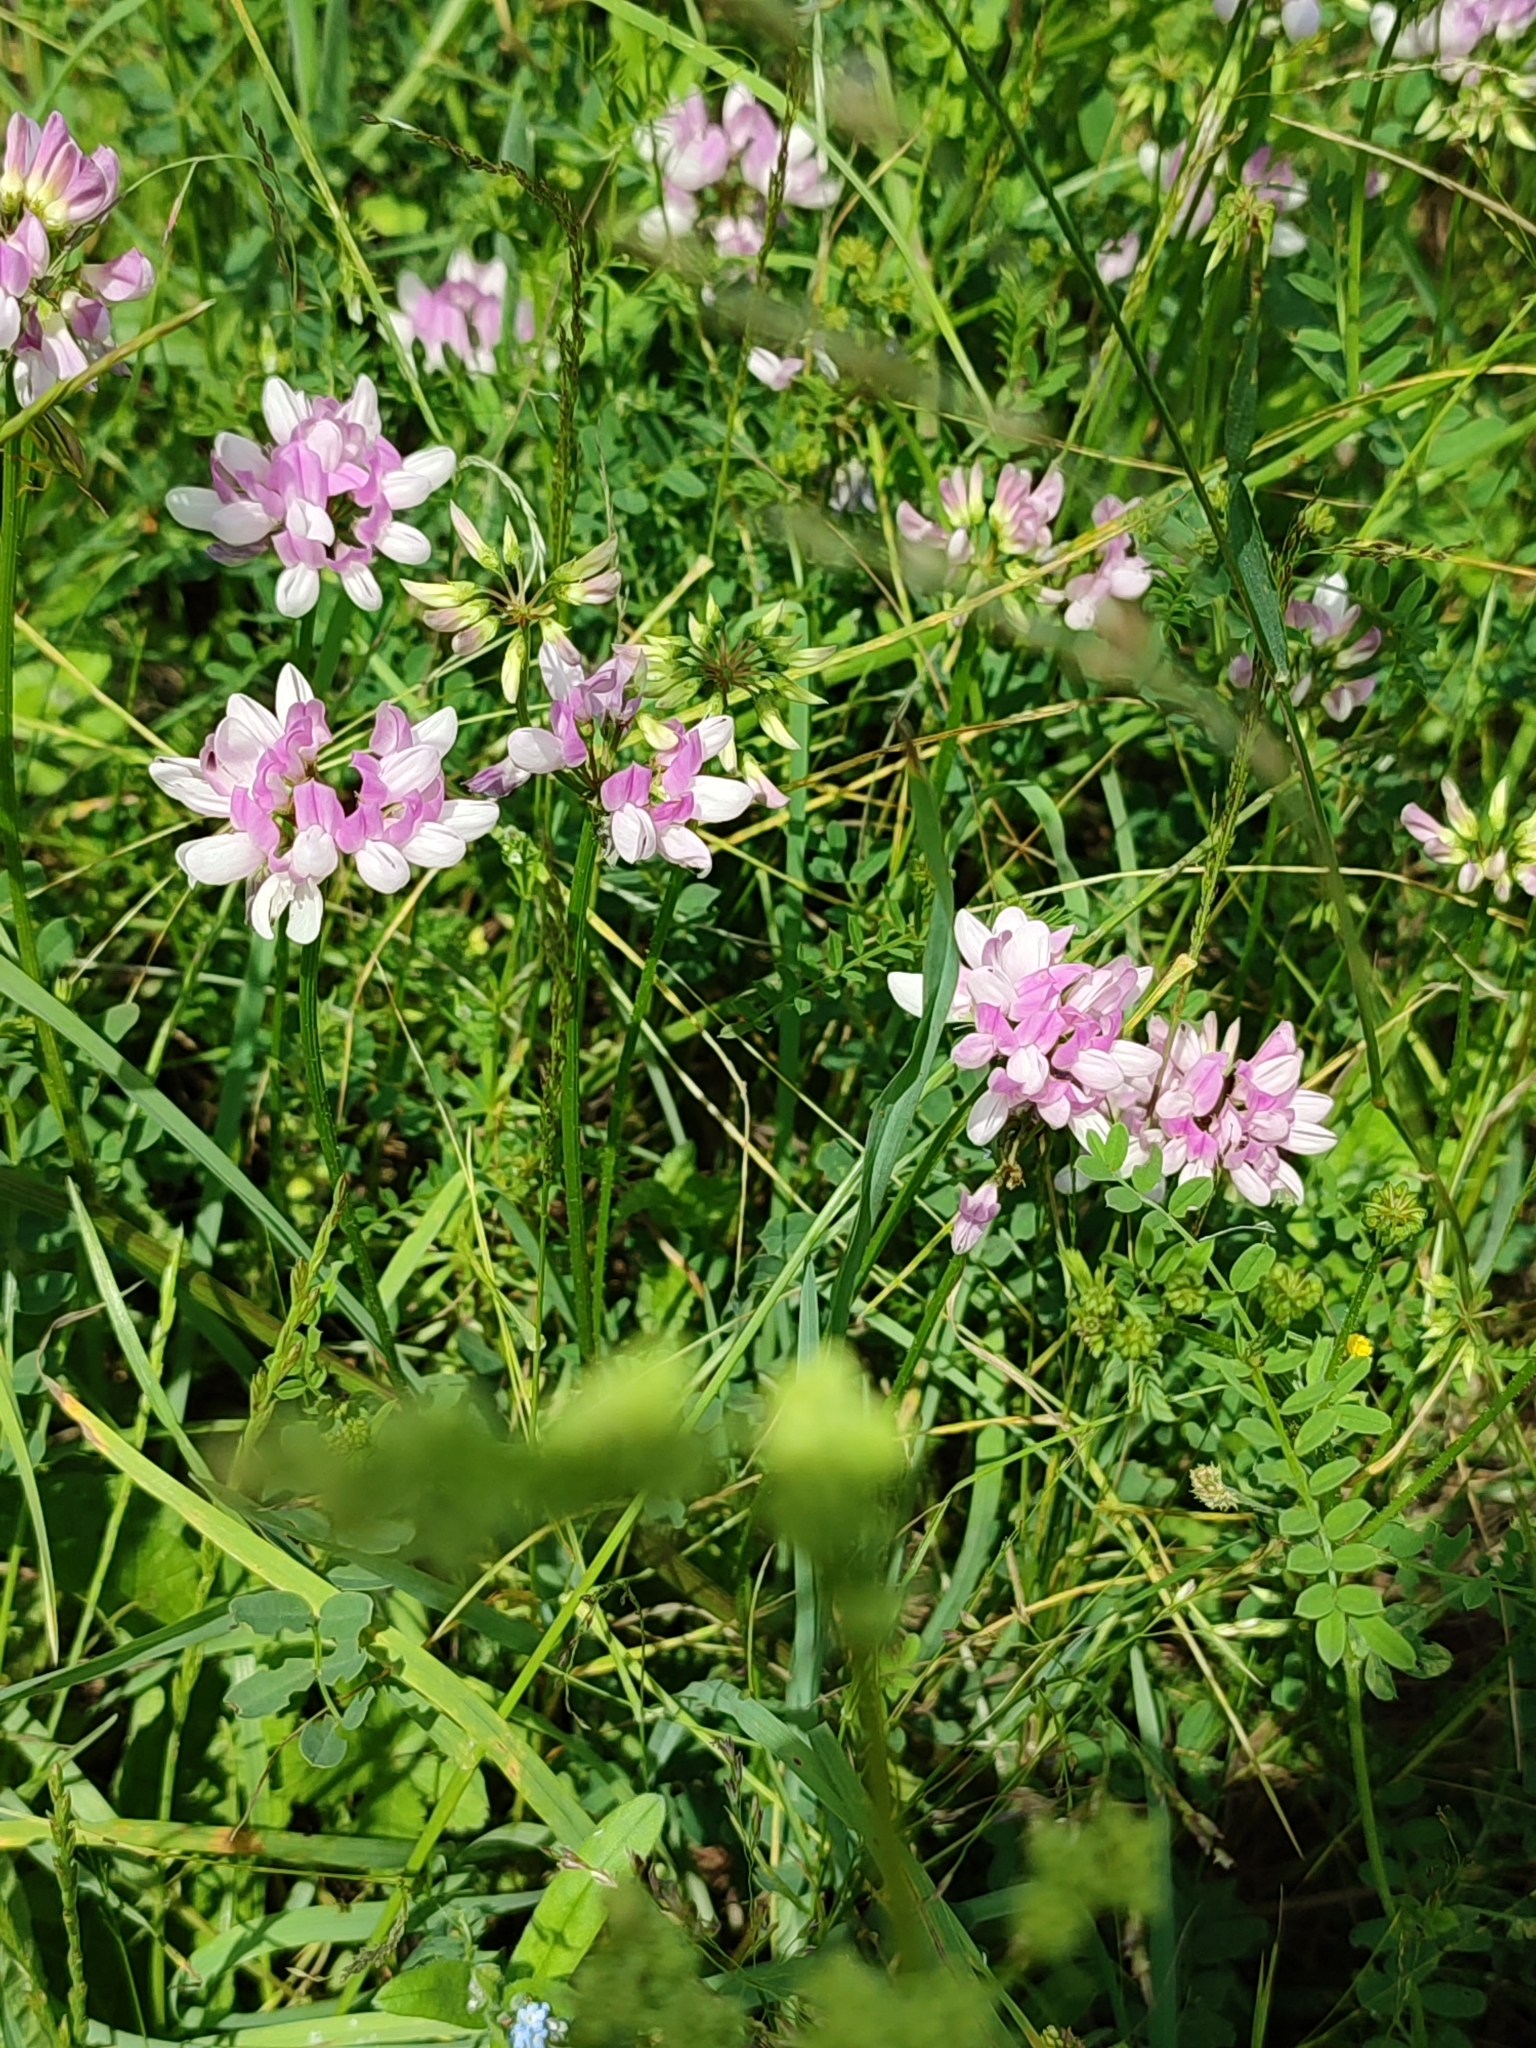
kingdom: Plantae
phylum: Tracheophyta
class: Magnoliopsida
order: Fabales
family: Fabaceae
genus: Coronilla
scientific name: Coronilla varia
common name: Crownvetch
